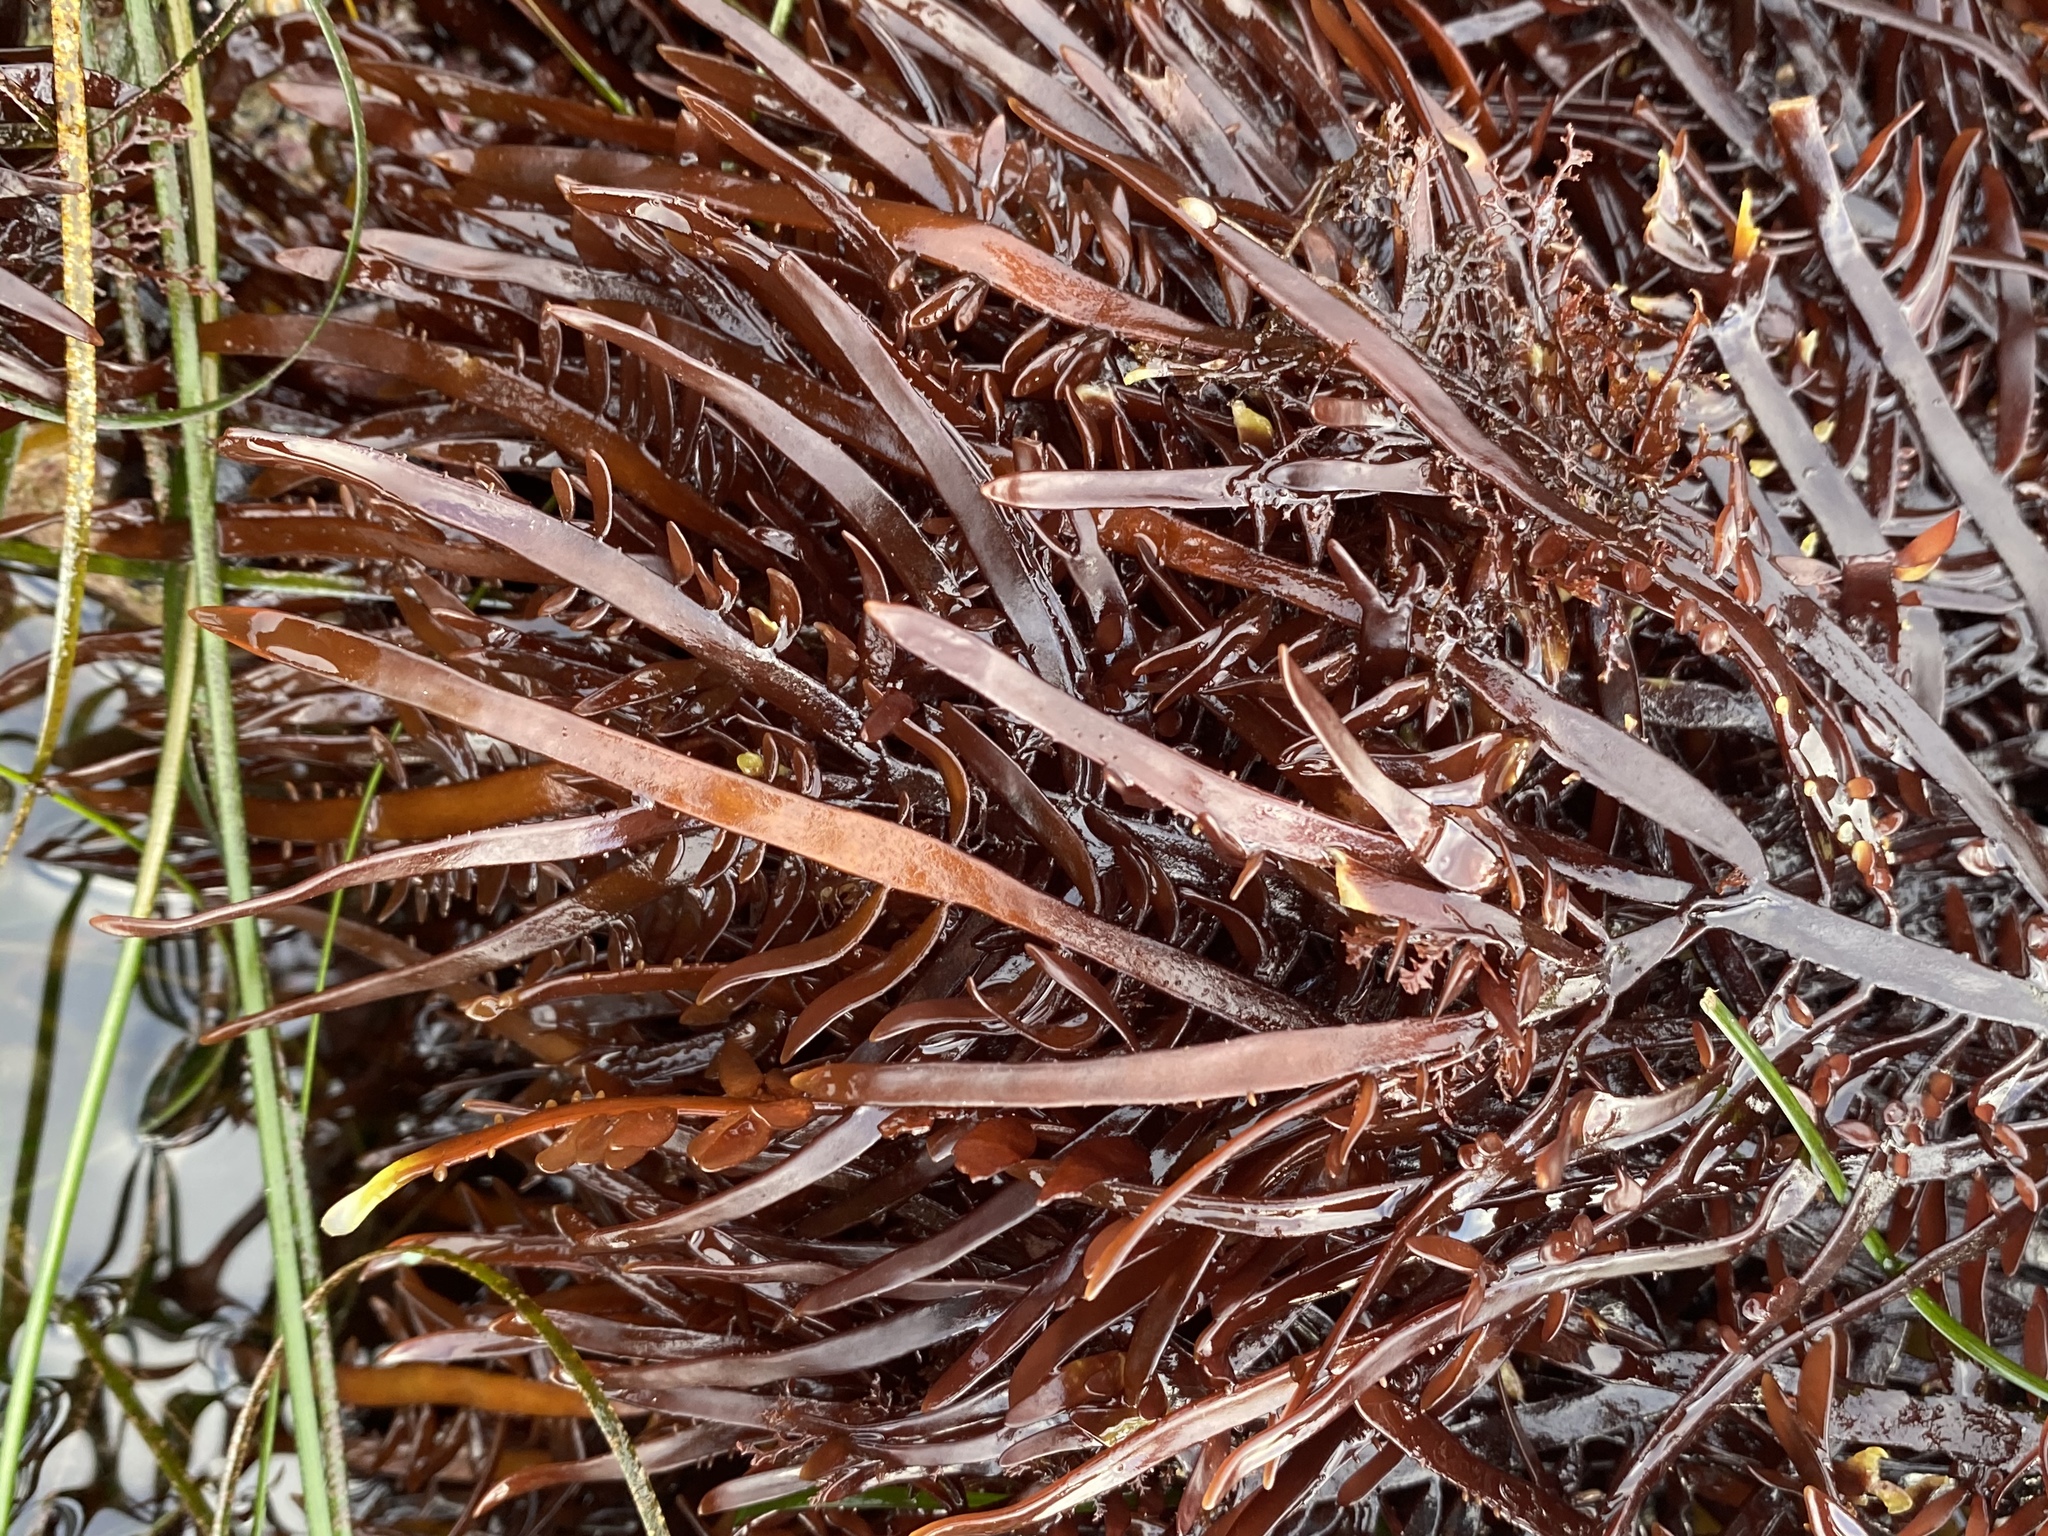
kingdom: Plantae
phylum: Rhodophyta
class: Florideophyceae
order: Halymeniales
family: Halymeniaceae
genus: Grateloupia
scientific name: Grateloupia Prionitis lanceolata
